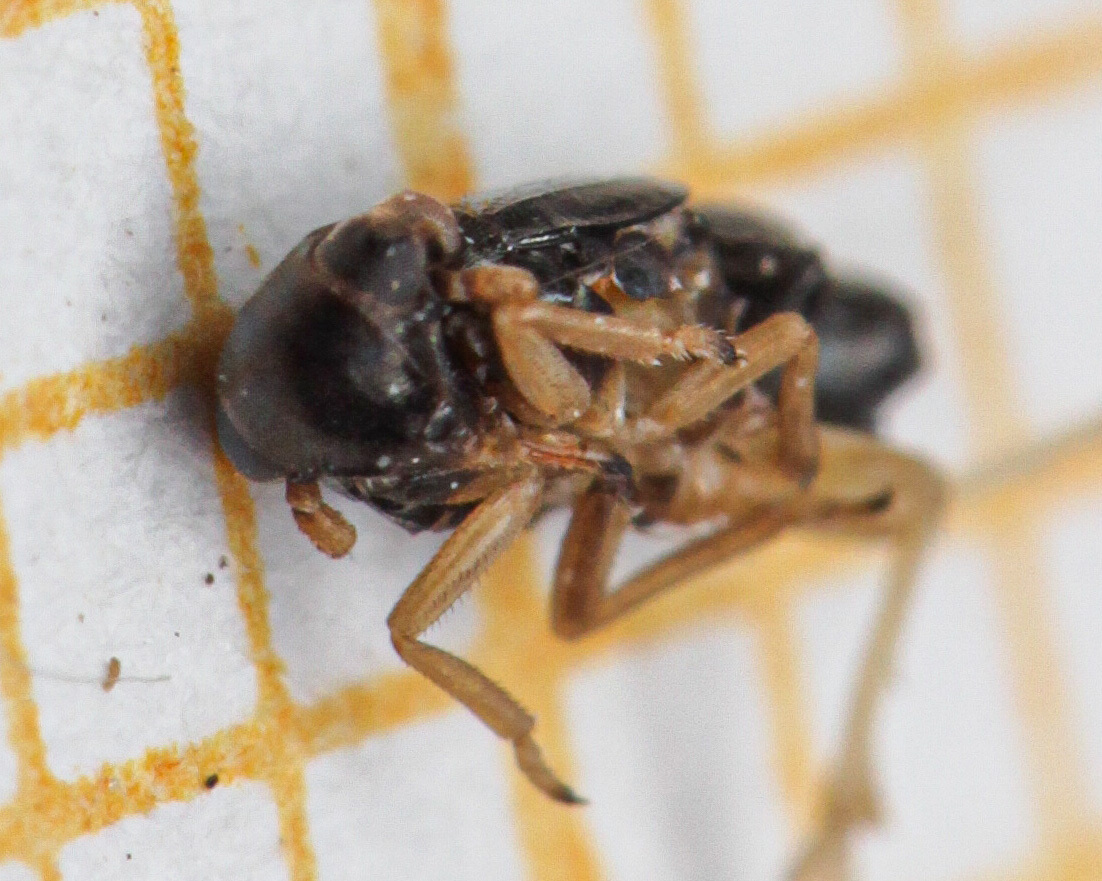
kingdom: Animalia
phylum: Arthropoda
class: Insecta
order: Hemiptera
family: Delphacidae
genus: Metropis
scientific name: Metropis inermis
